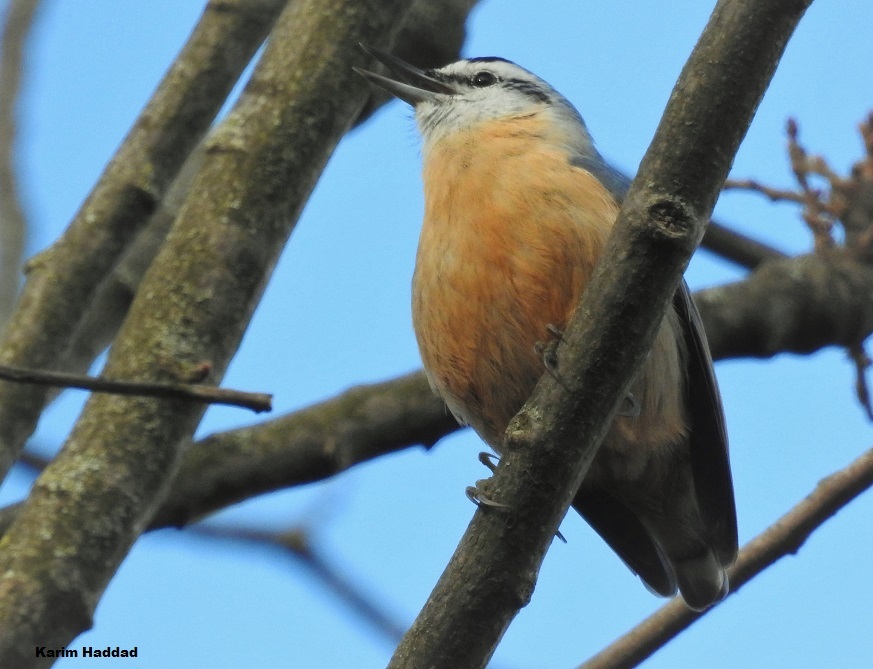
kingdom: Animalia
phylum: Chordata
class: Aves
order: Passeriformes
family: Sittidae
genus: Sitta
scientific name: Sitta ledanti
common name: Algerian nuthatch
